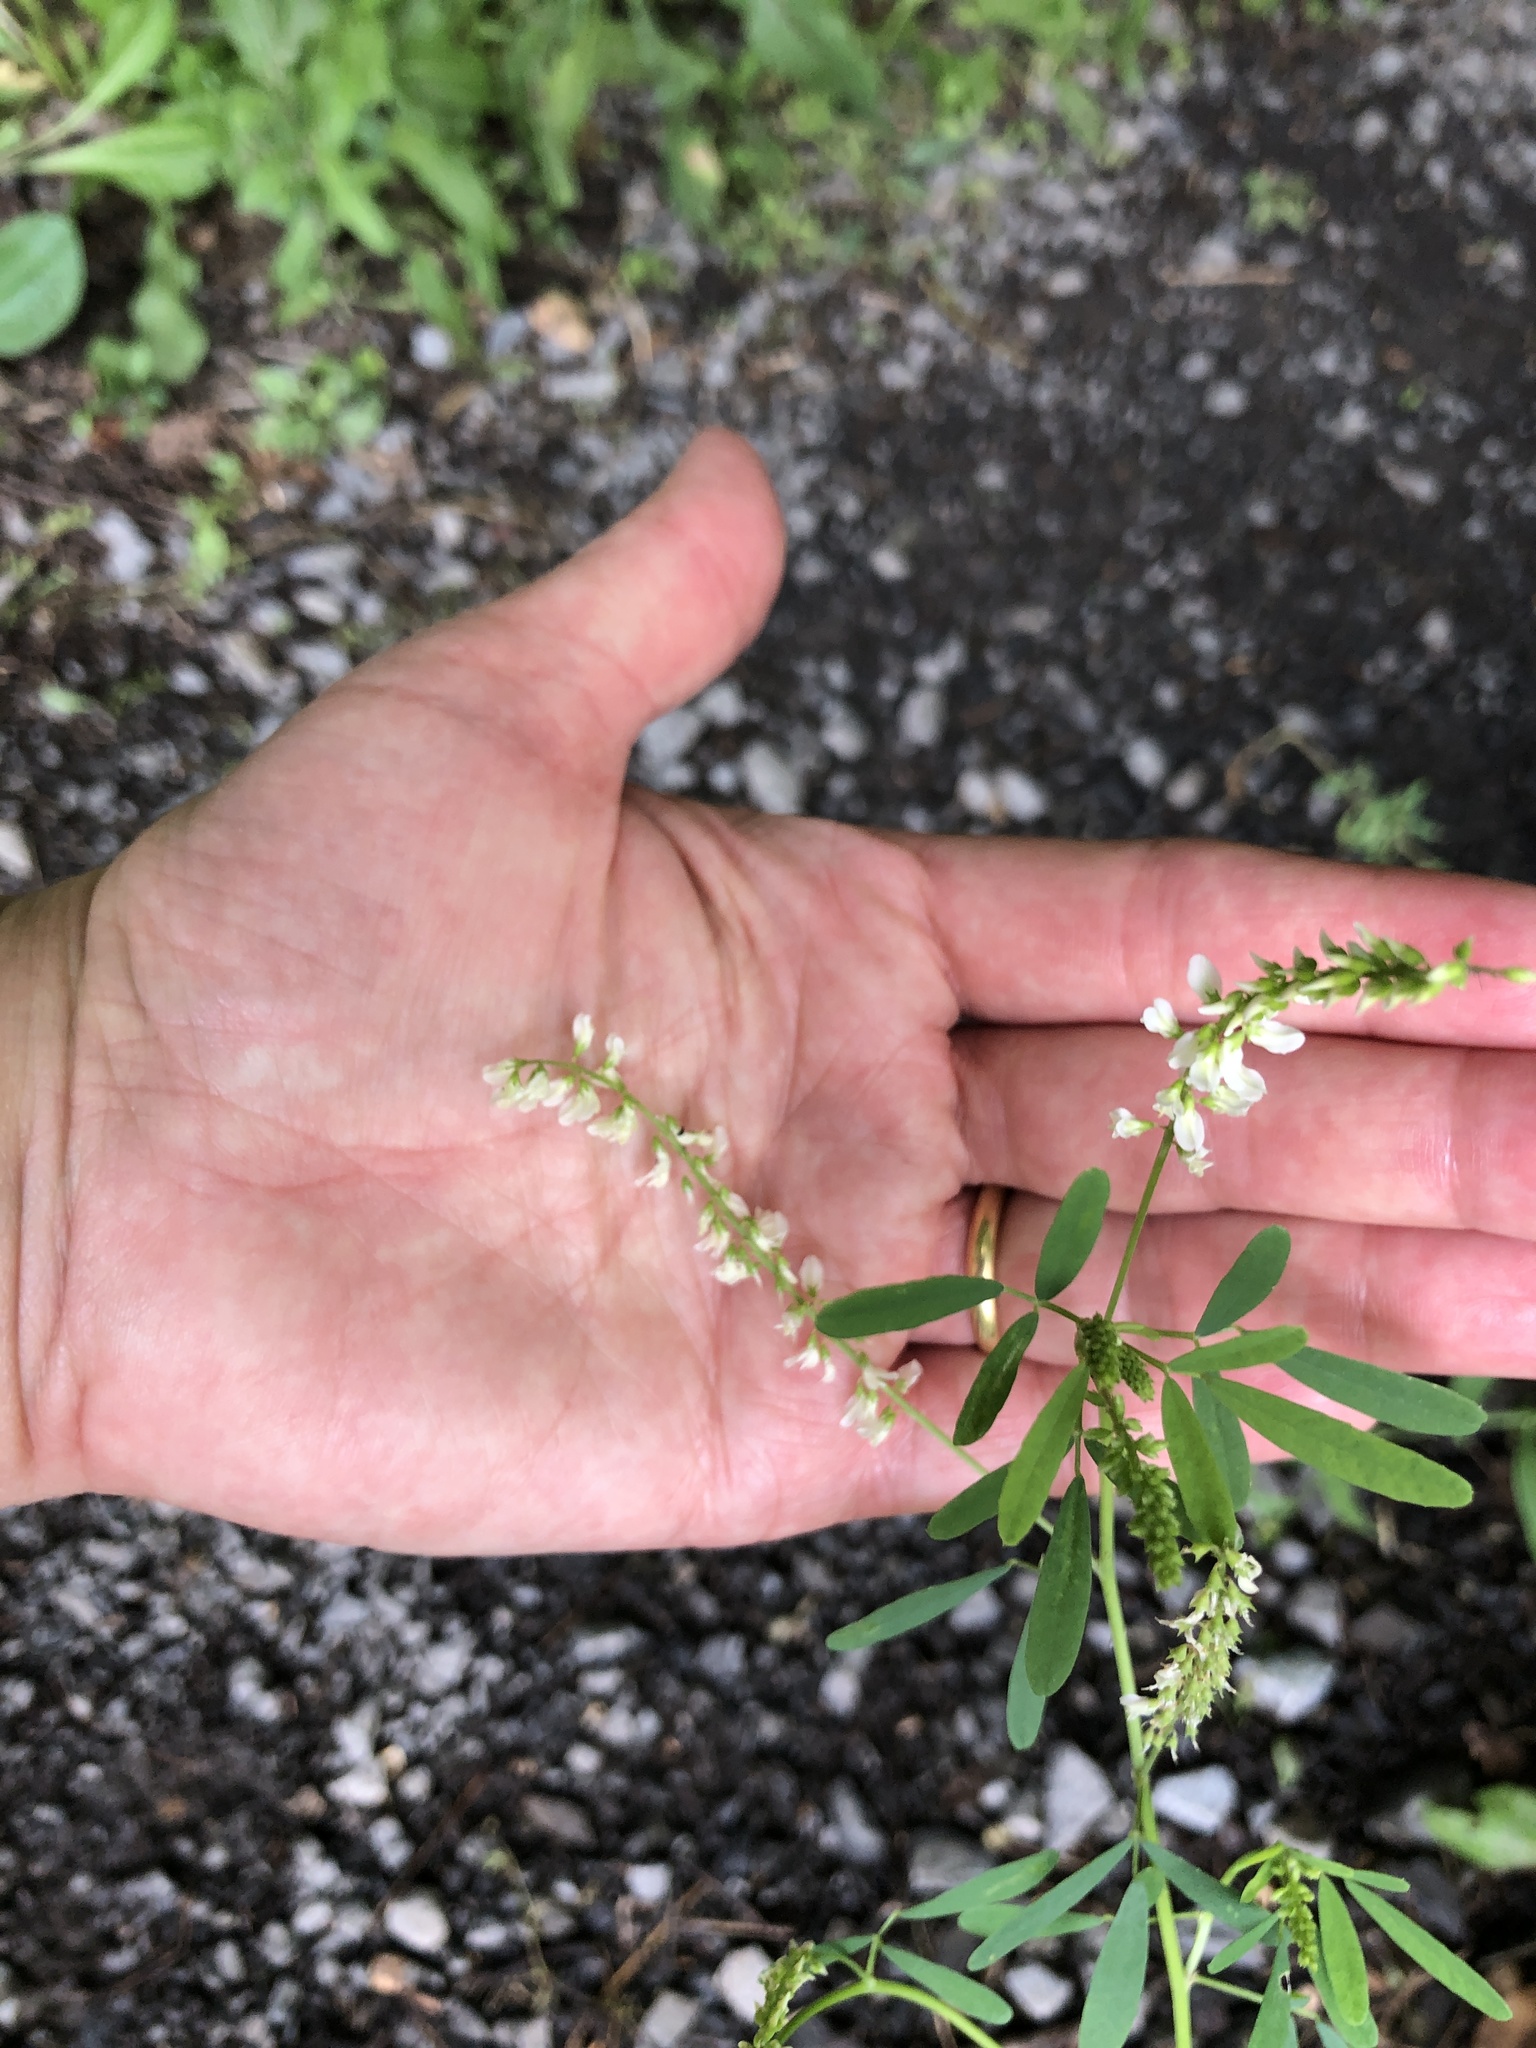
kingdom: Plantae
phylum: Tracheophyta
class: Magnoliopsida
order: Fabales
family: Fabaceae
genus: Melilotus
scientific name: Melilotus albus
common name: White melilot
